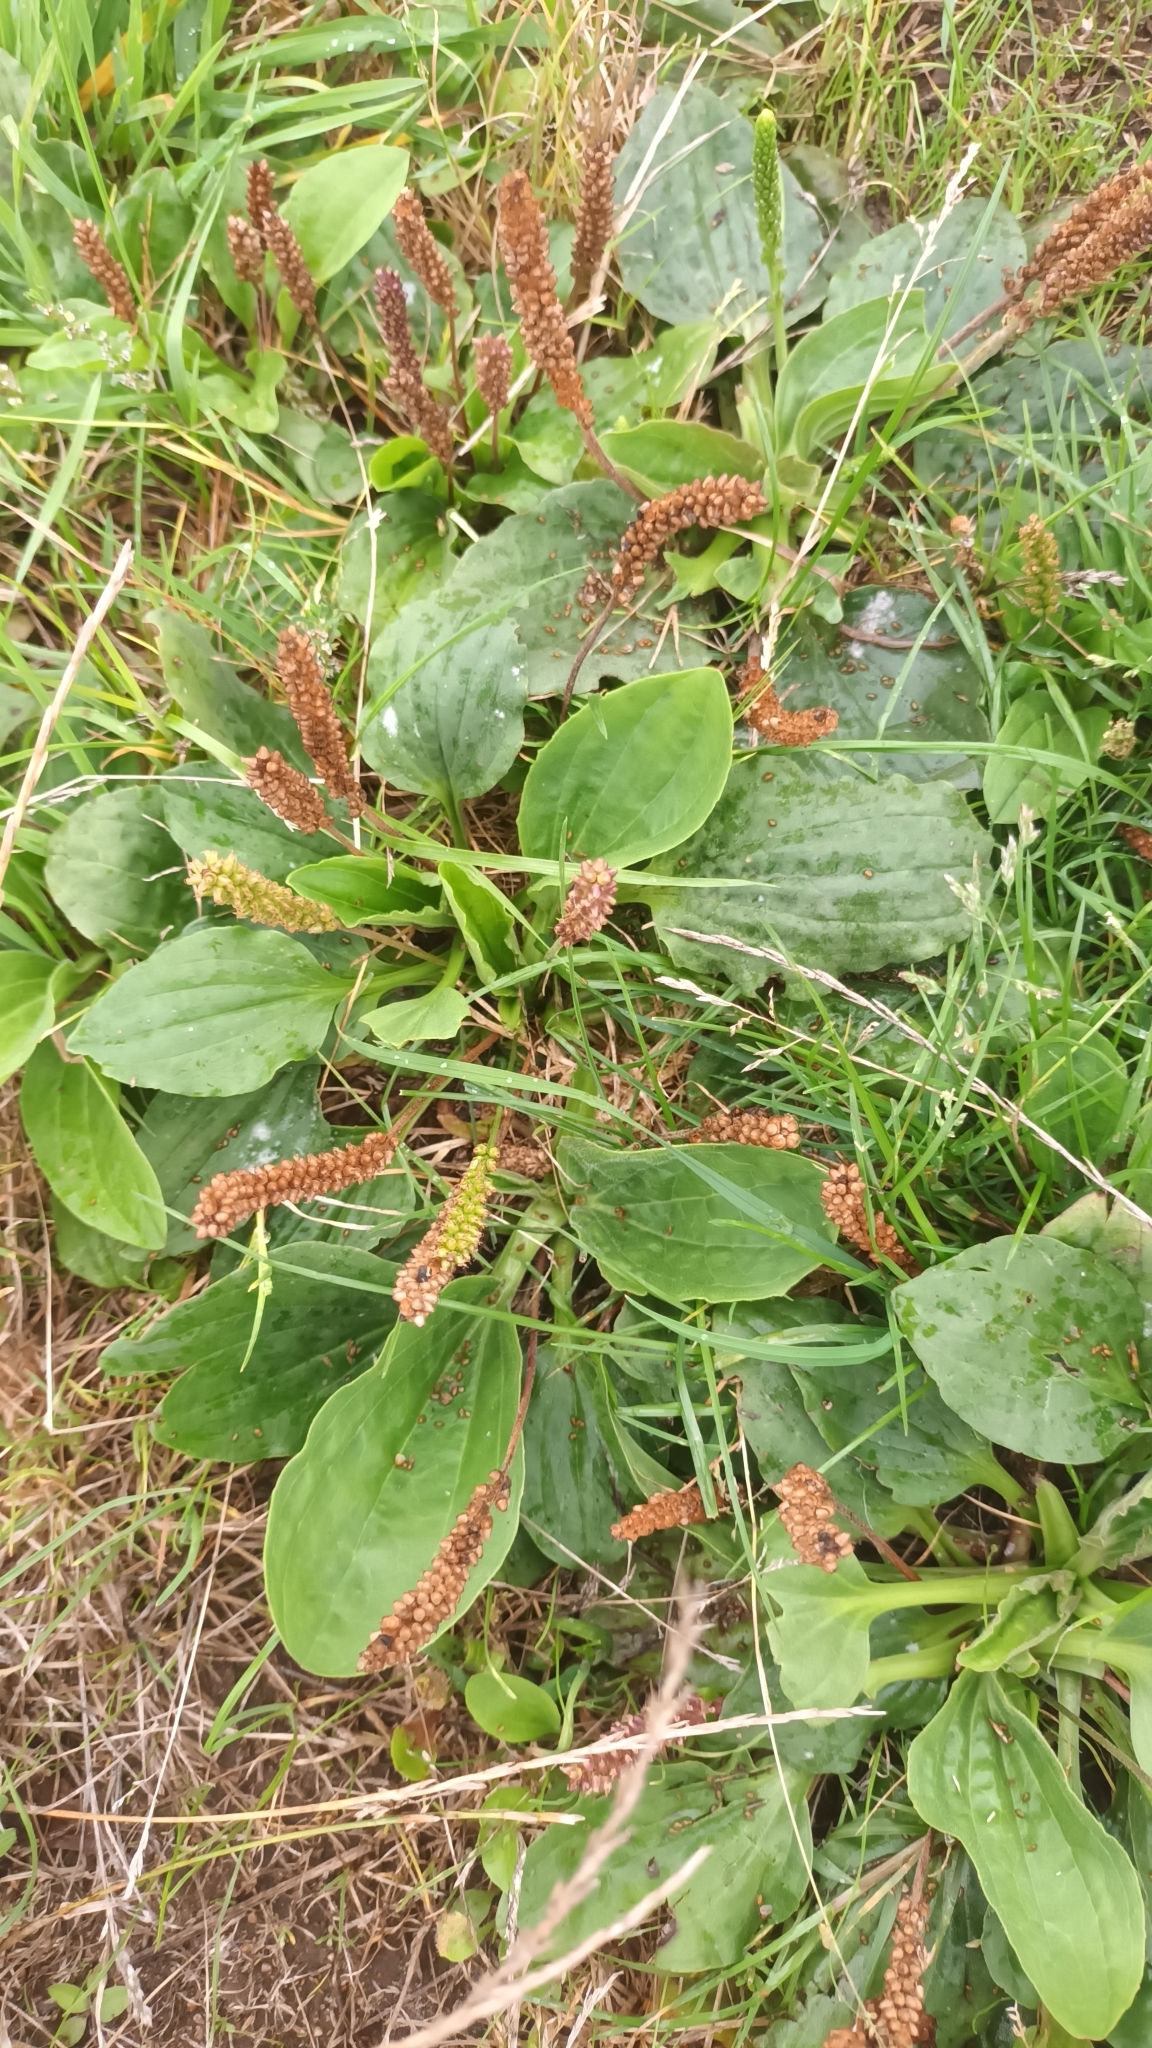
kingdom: Plantae
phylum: Tracheophyta
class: Magnoliopsida
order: Lamiales
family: Plantaginaceae
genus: Plantago
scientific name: Plantago major
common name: Common plantain
